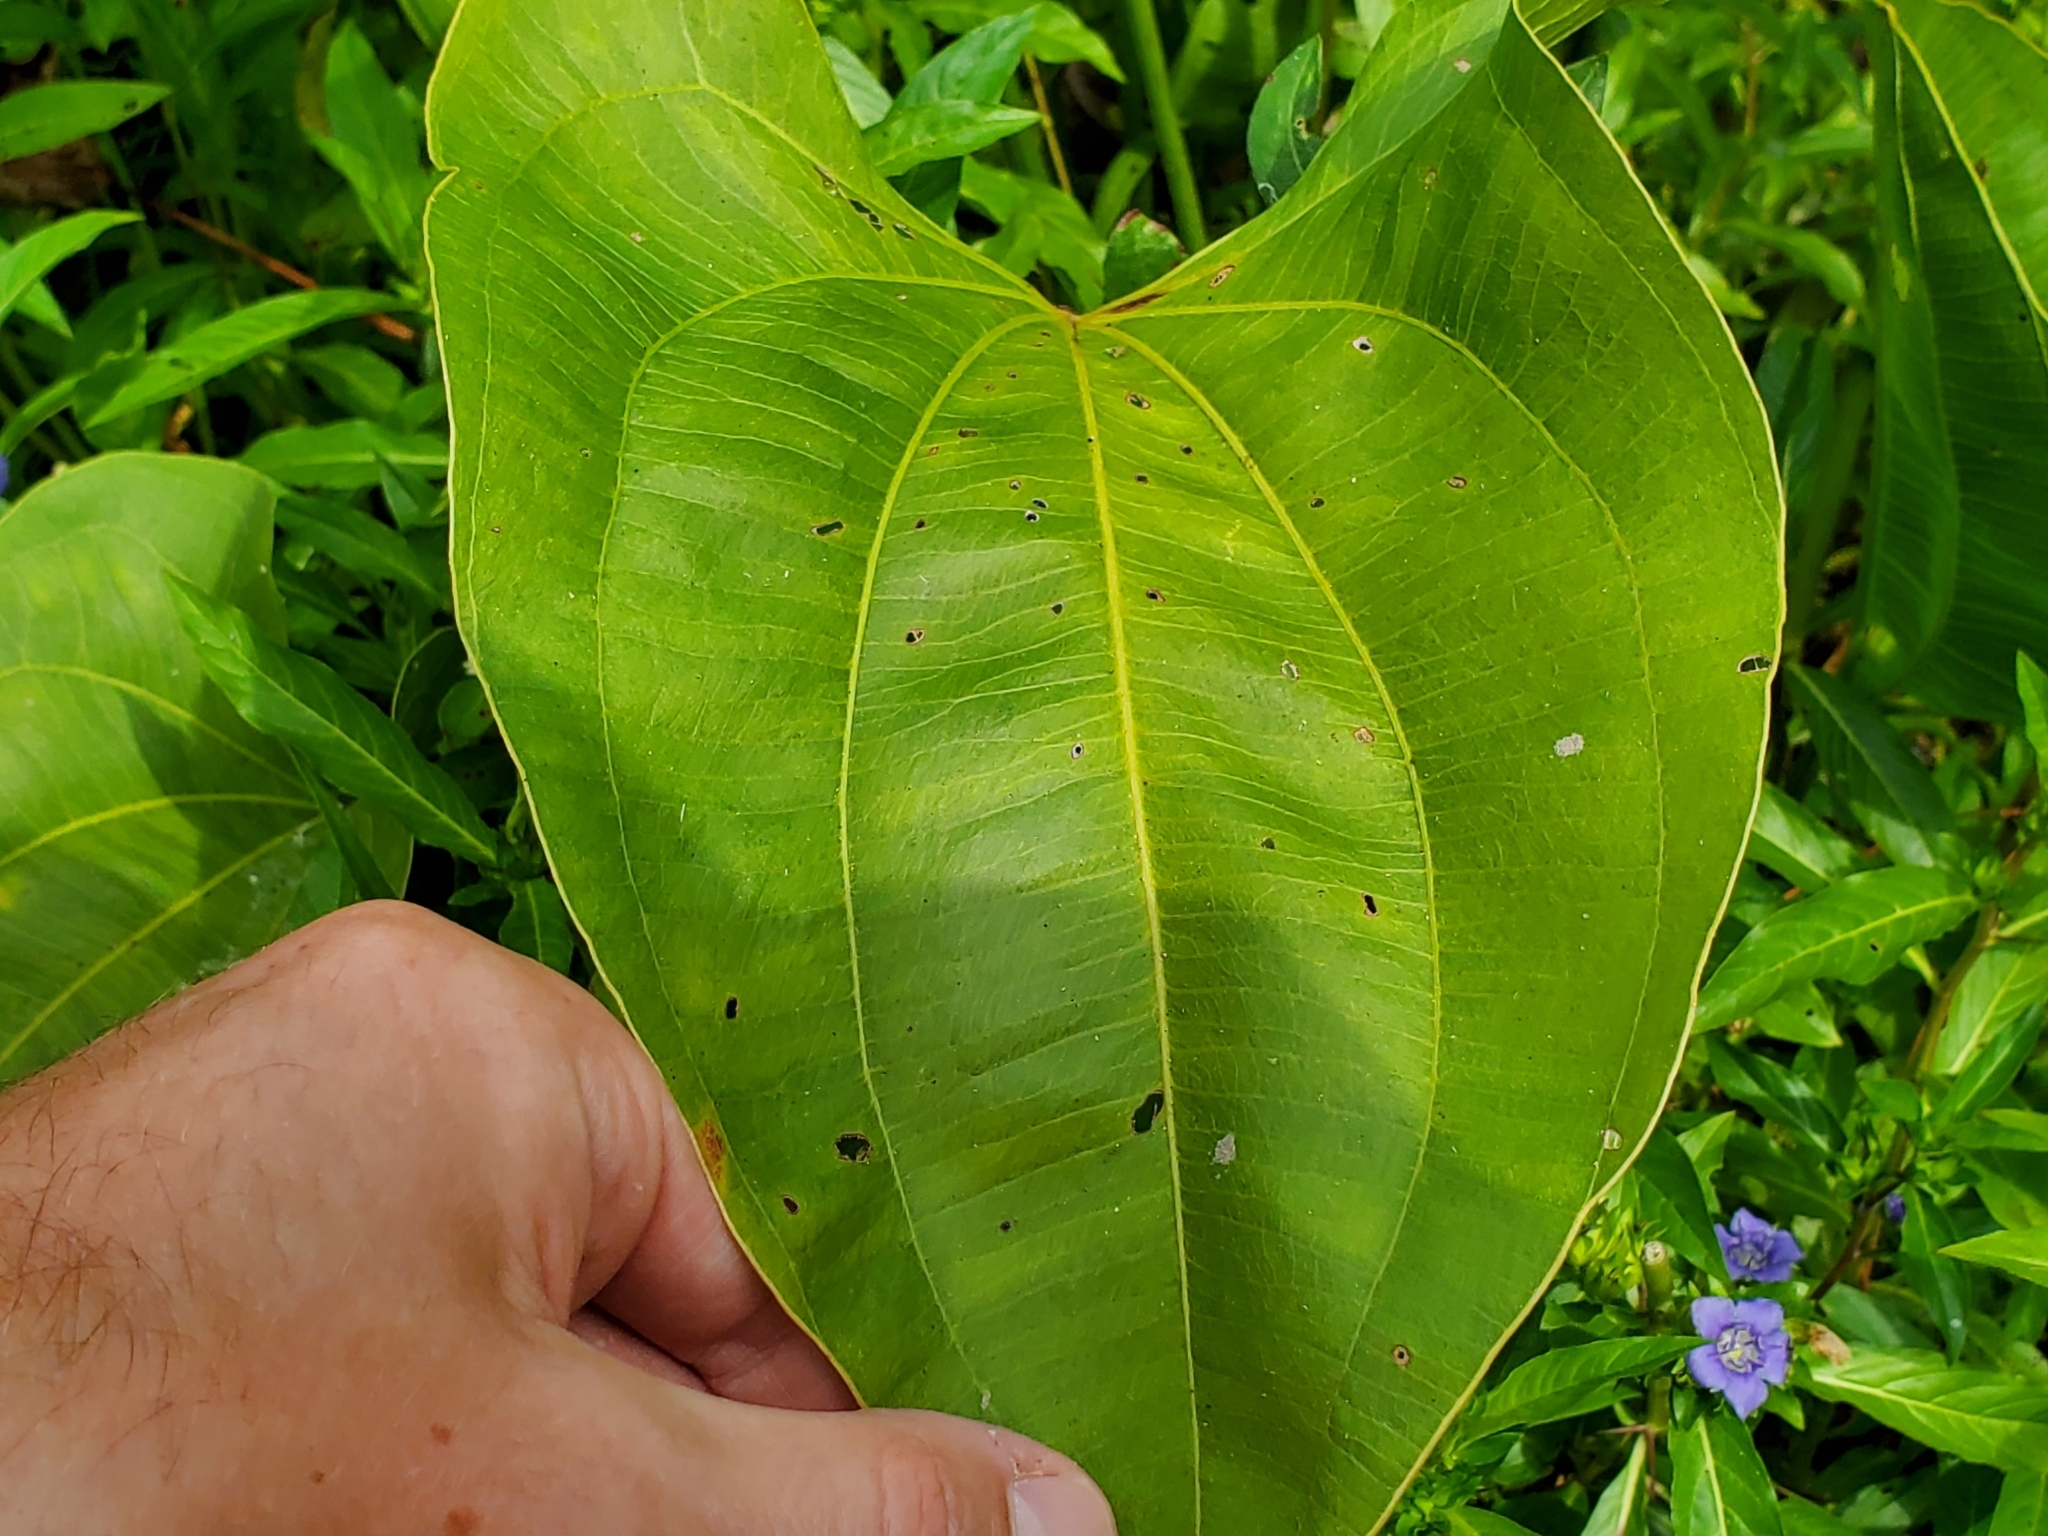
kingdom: Plantae
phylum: Tracheophyta
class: Liliopsida
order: Alismatales
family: Alismataceae
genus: Aquarius
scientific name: Aquarius cordifolius
